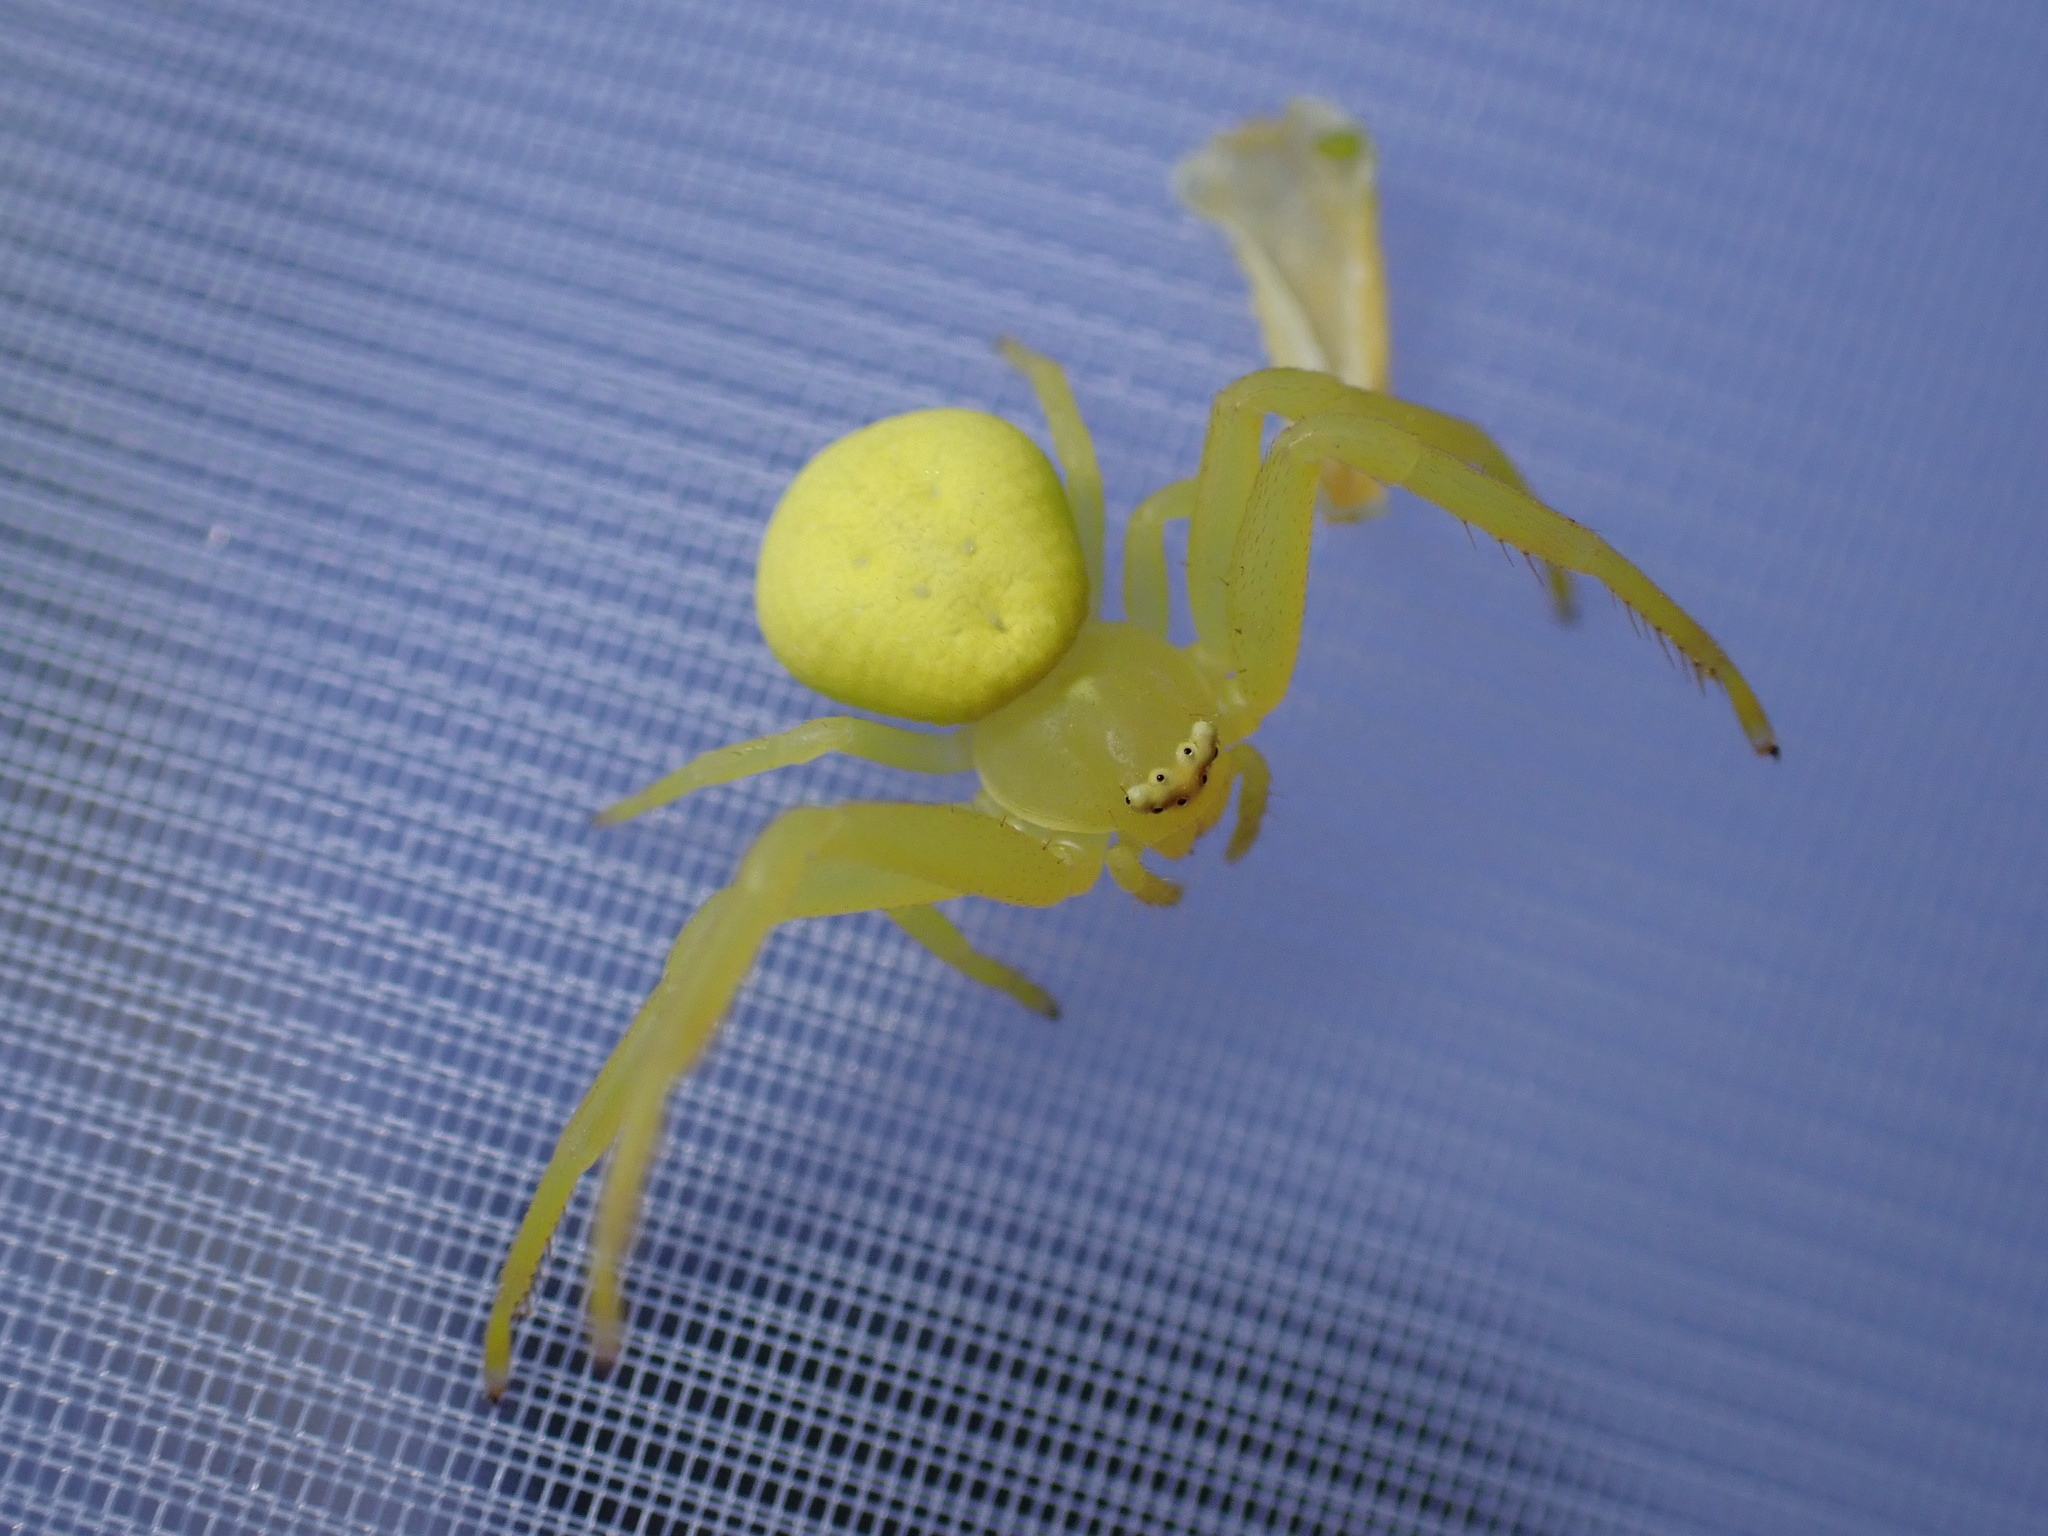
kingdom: Animalia
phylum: Arthropoda
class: Arachnida
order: Araneae
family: Thomisidae
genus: Misumena
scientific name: Misumena vatia
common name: Goldenrod crab spider
